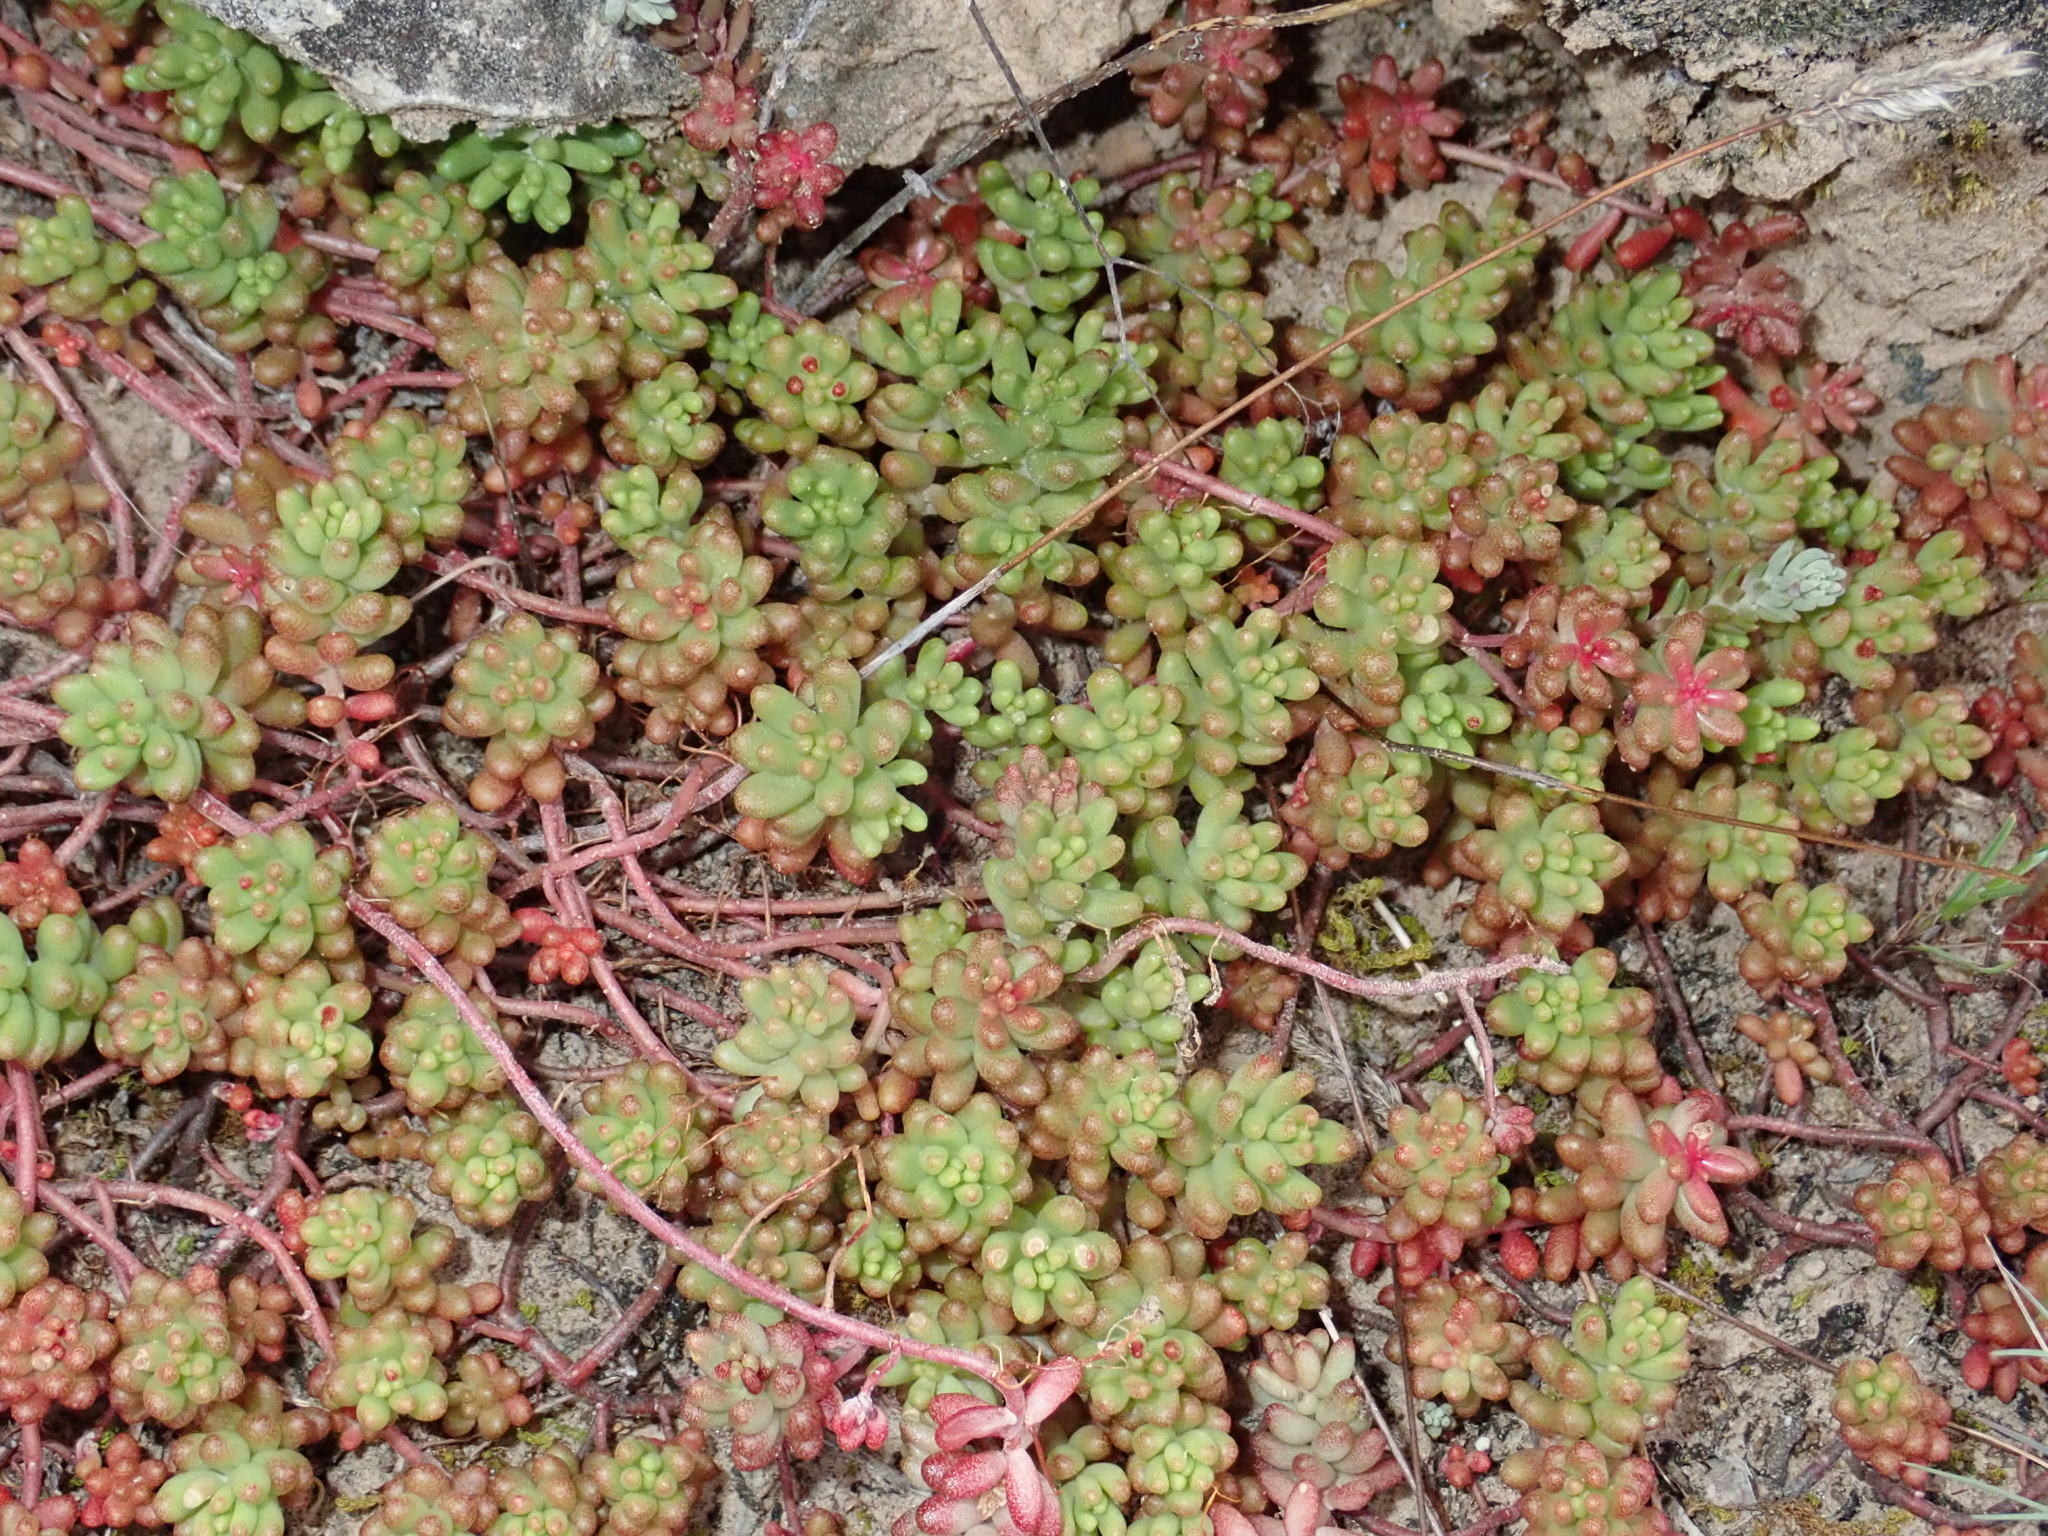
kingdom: Plantae
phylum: Tracheophyta
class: Magnoliopsida
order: Saxifragales
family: Crassulaceae
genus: Sedum
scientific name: Sedum album
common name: White stonecrop
